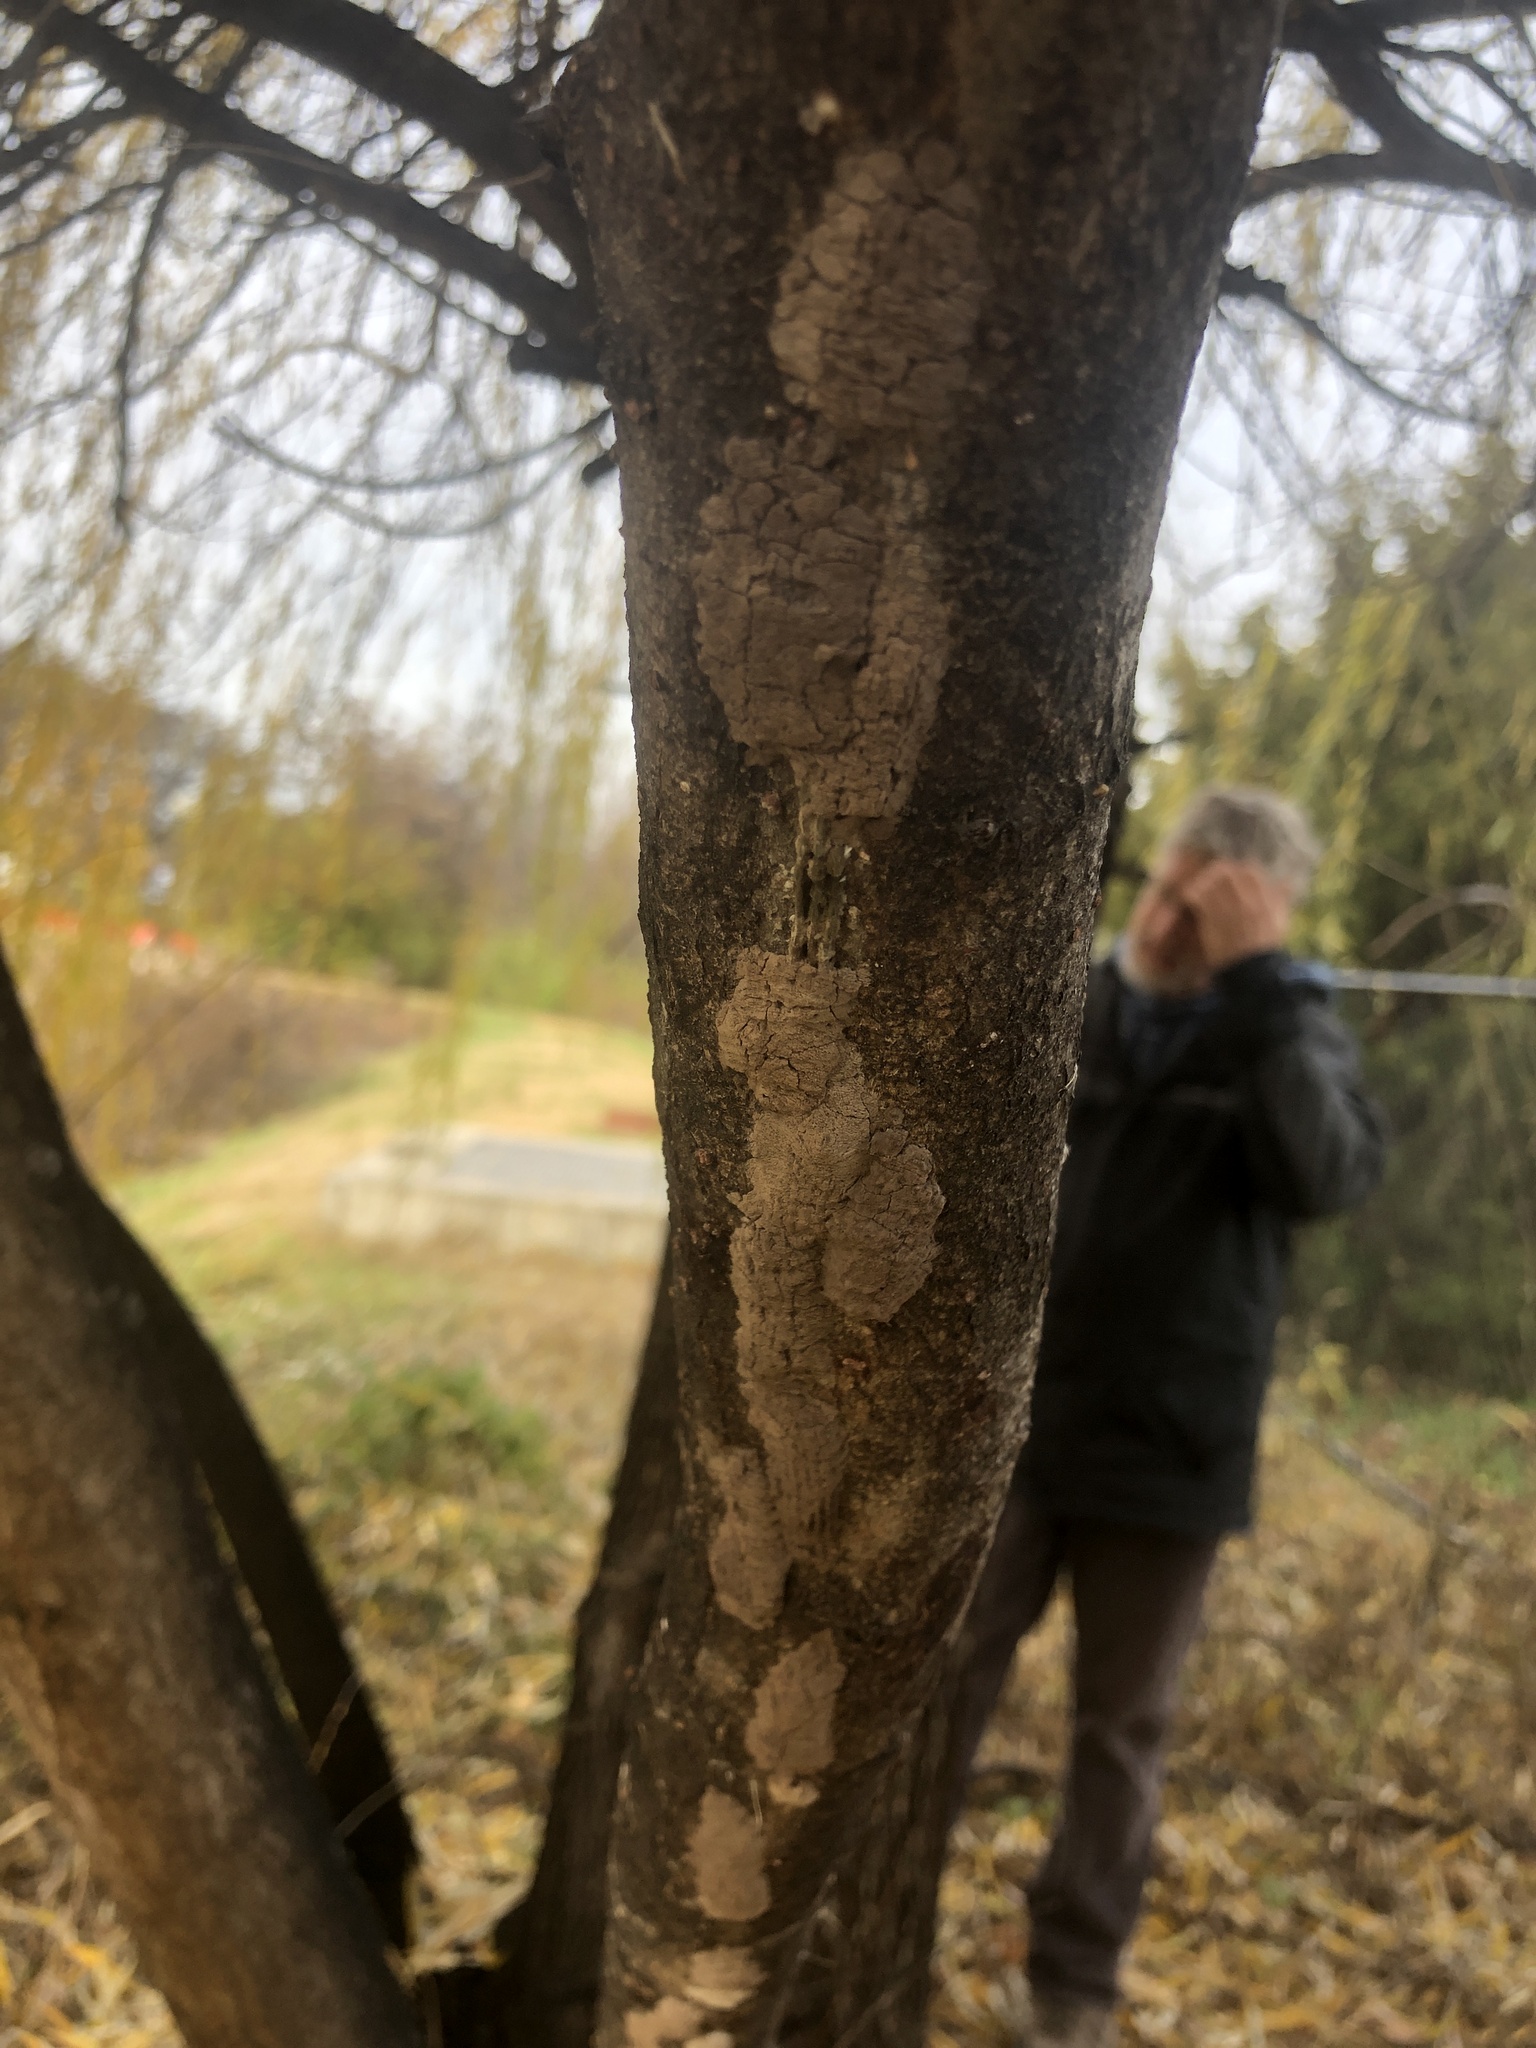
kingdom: Animalia
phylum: Arthropoda
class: Insecta
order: Hemiptera
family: Fulgoridae
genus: Lycorma
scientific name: Lycorma delicatula
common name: Spotted lanternfly
